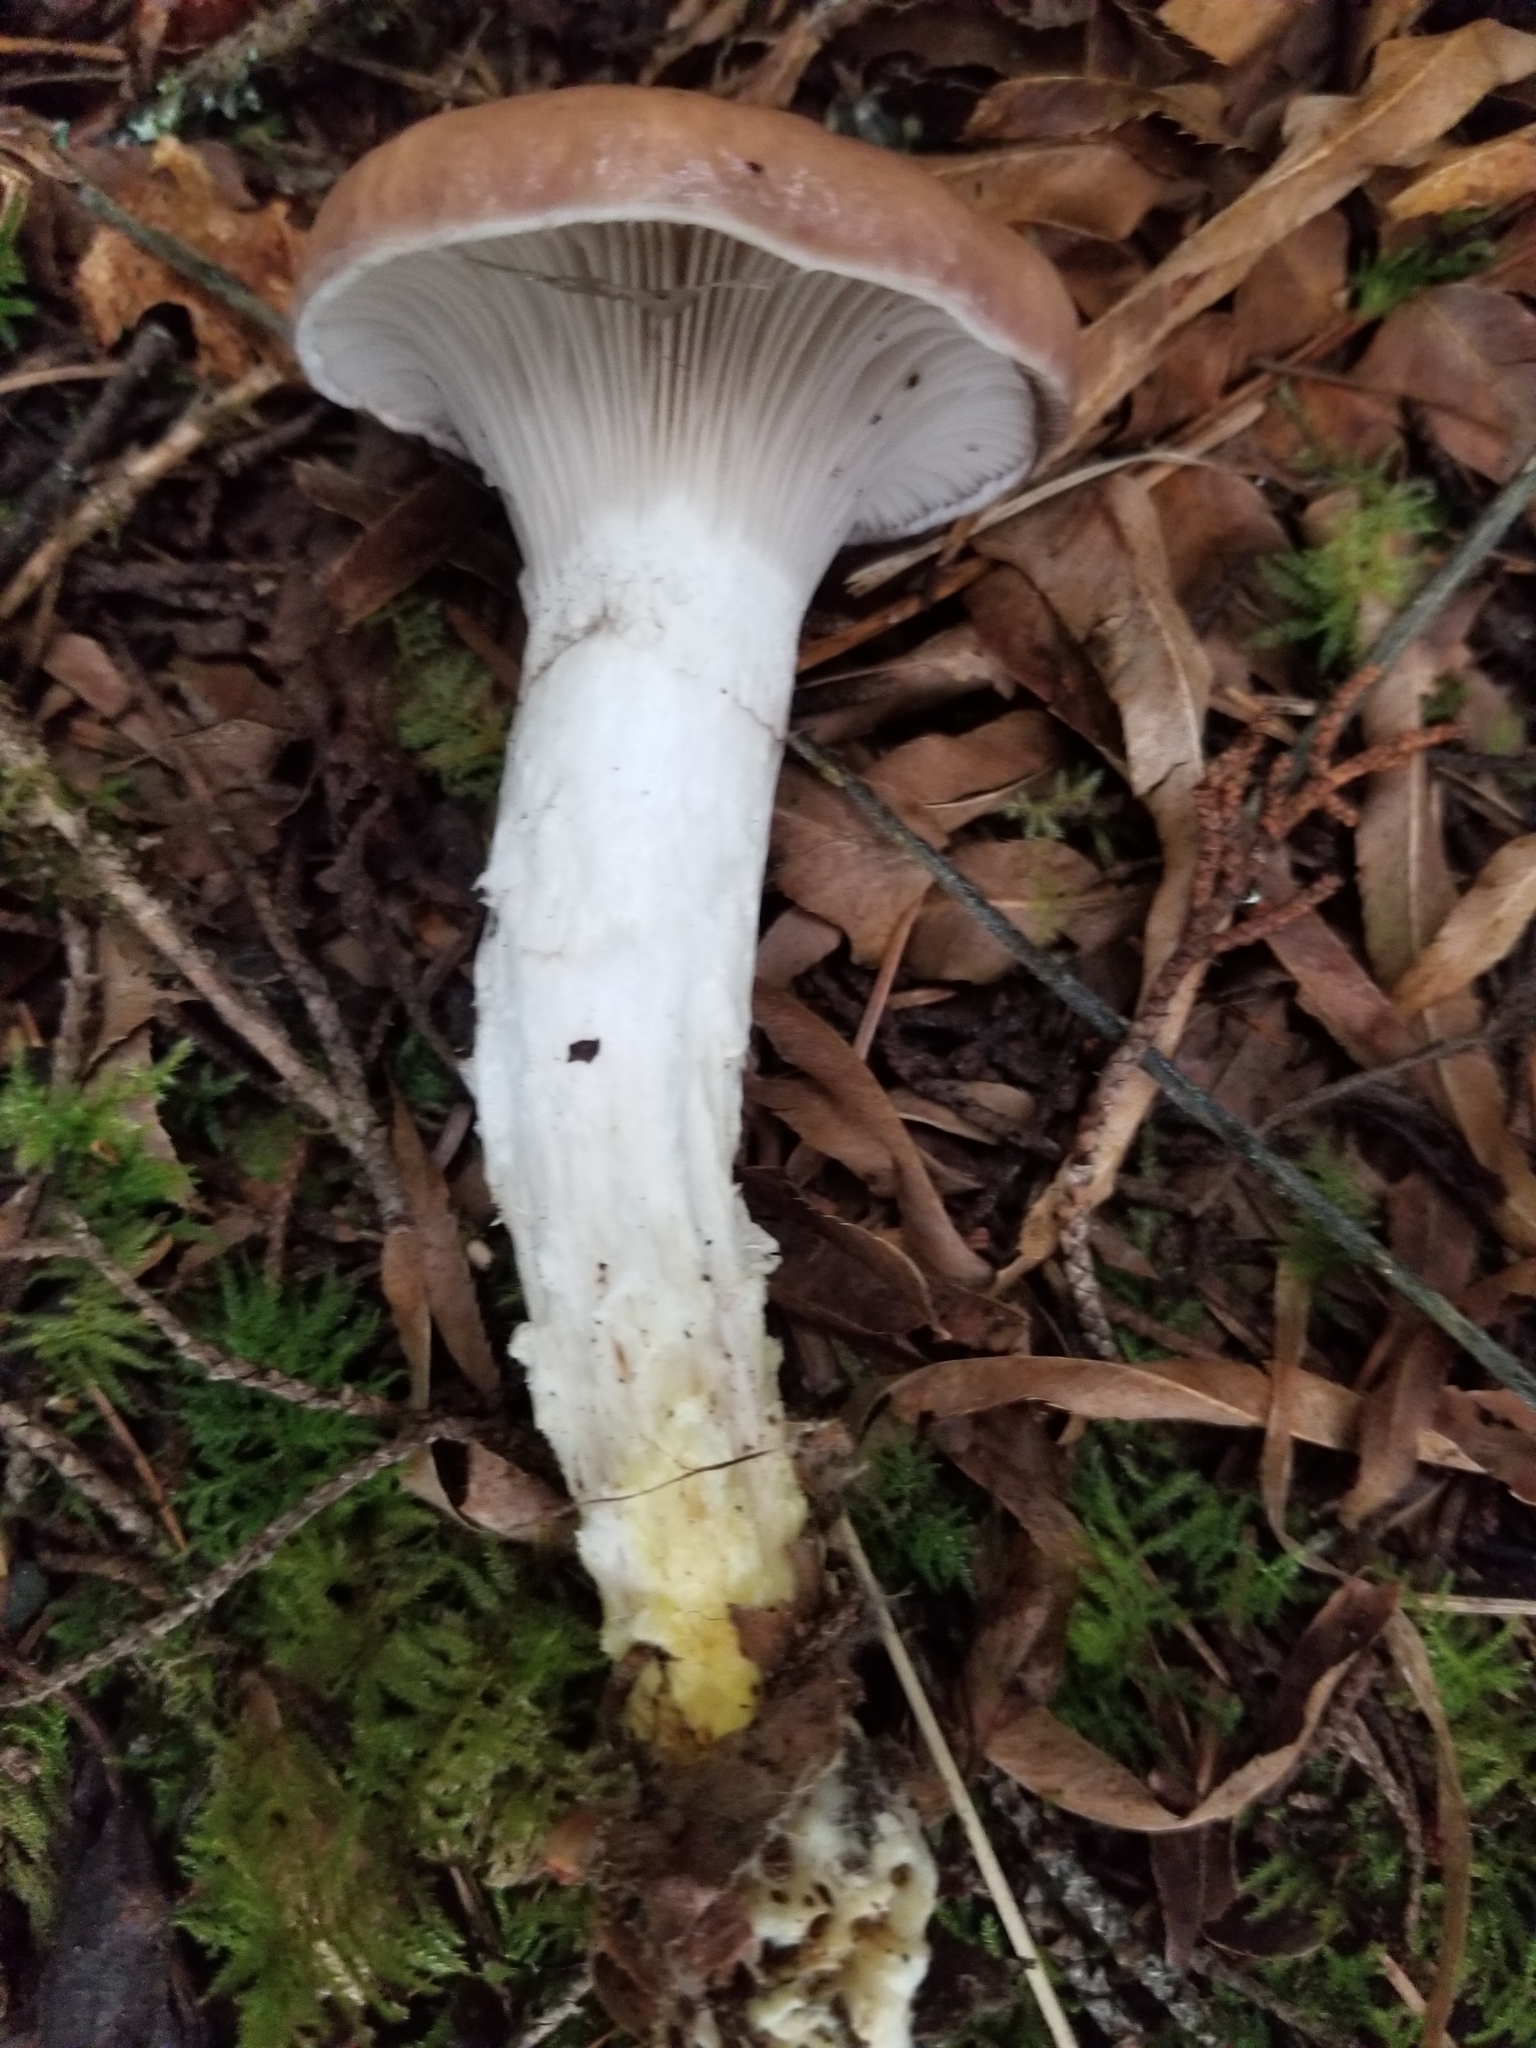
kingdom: Fungi
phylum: Basidiomycota
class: Agaricomycetes
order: Boletales
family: Gomphidiaceae
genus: Gomphidius
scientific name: Gomphidius glutinosus
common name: Slimy spike
